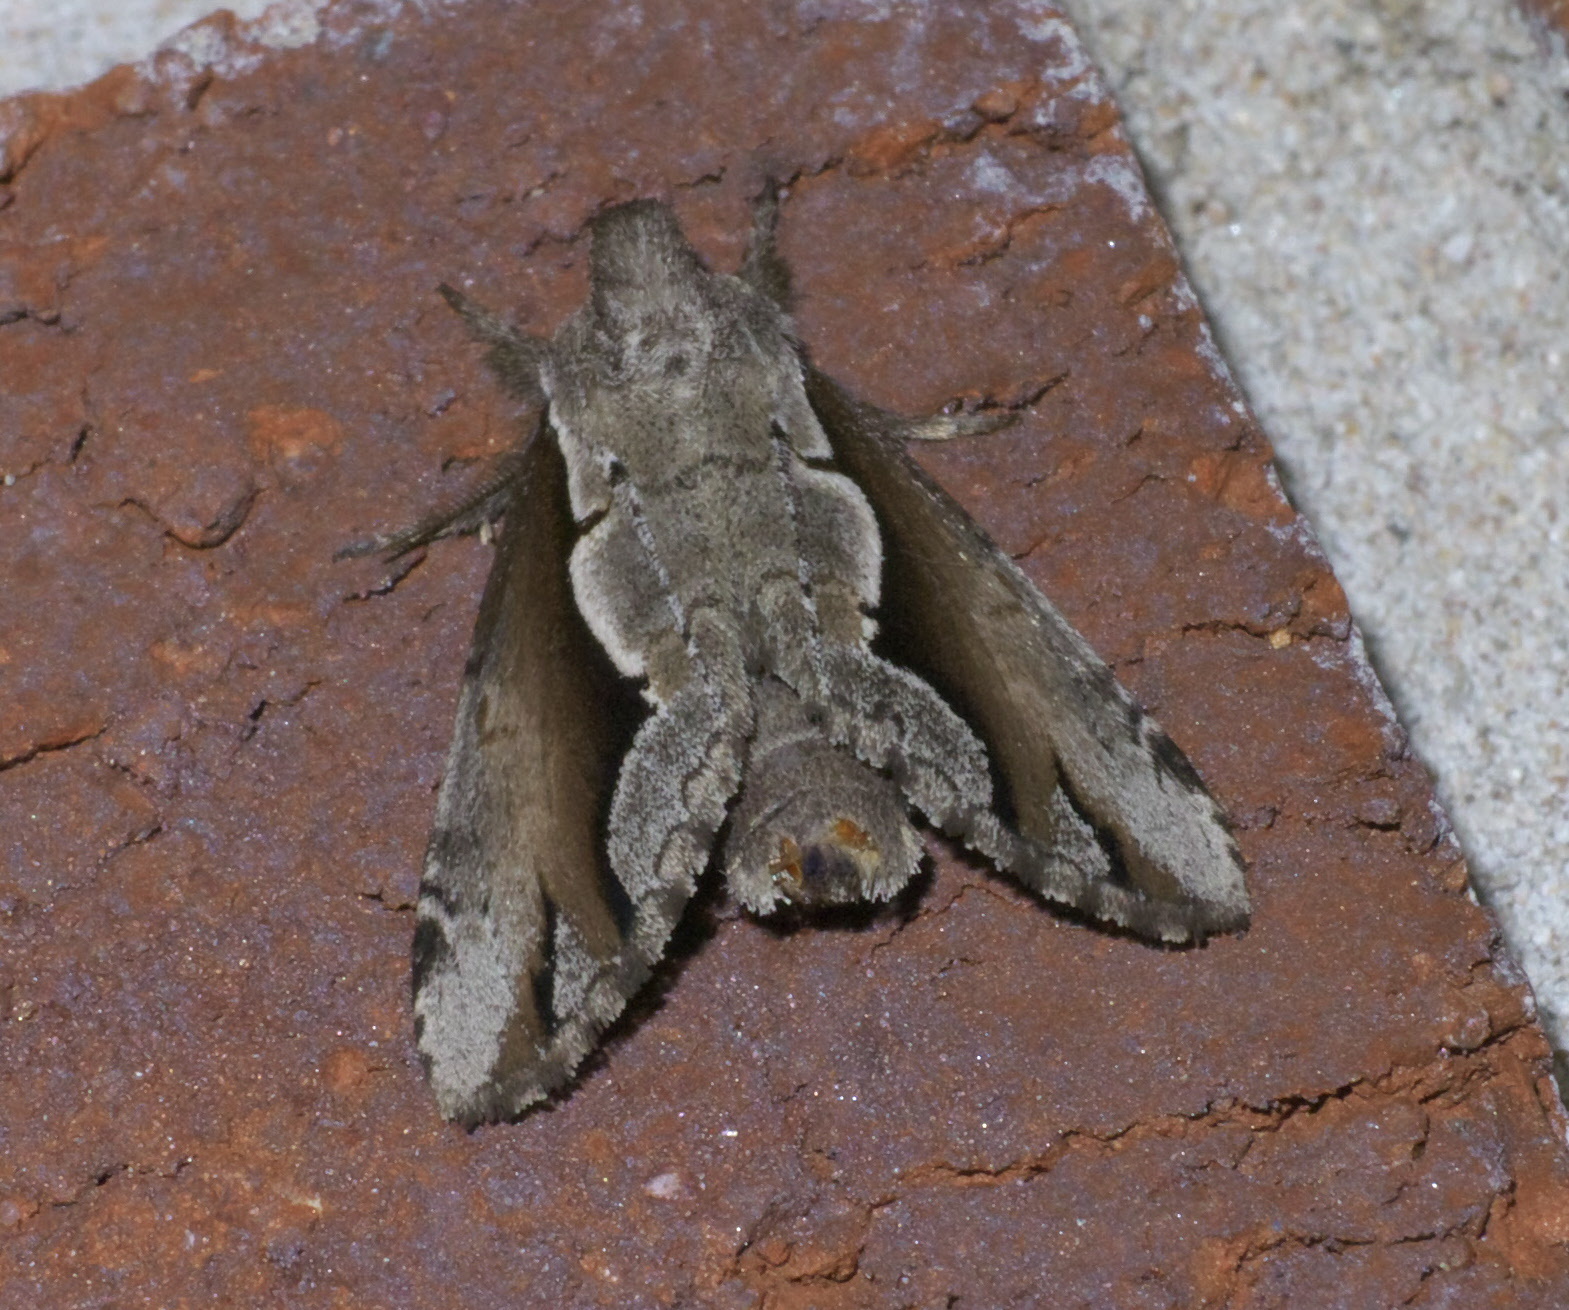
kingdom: Animalia
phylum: Arthropoda
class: Insecta
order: Lepidoptera
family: Notodontidae
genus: Nerice
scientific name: Nerice bidentata
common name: Double-toothed prominent
